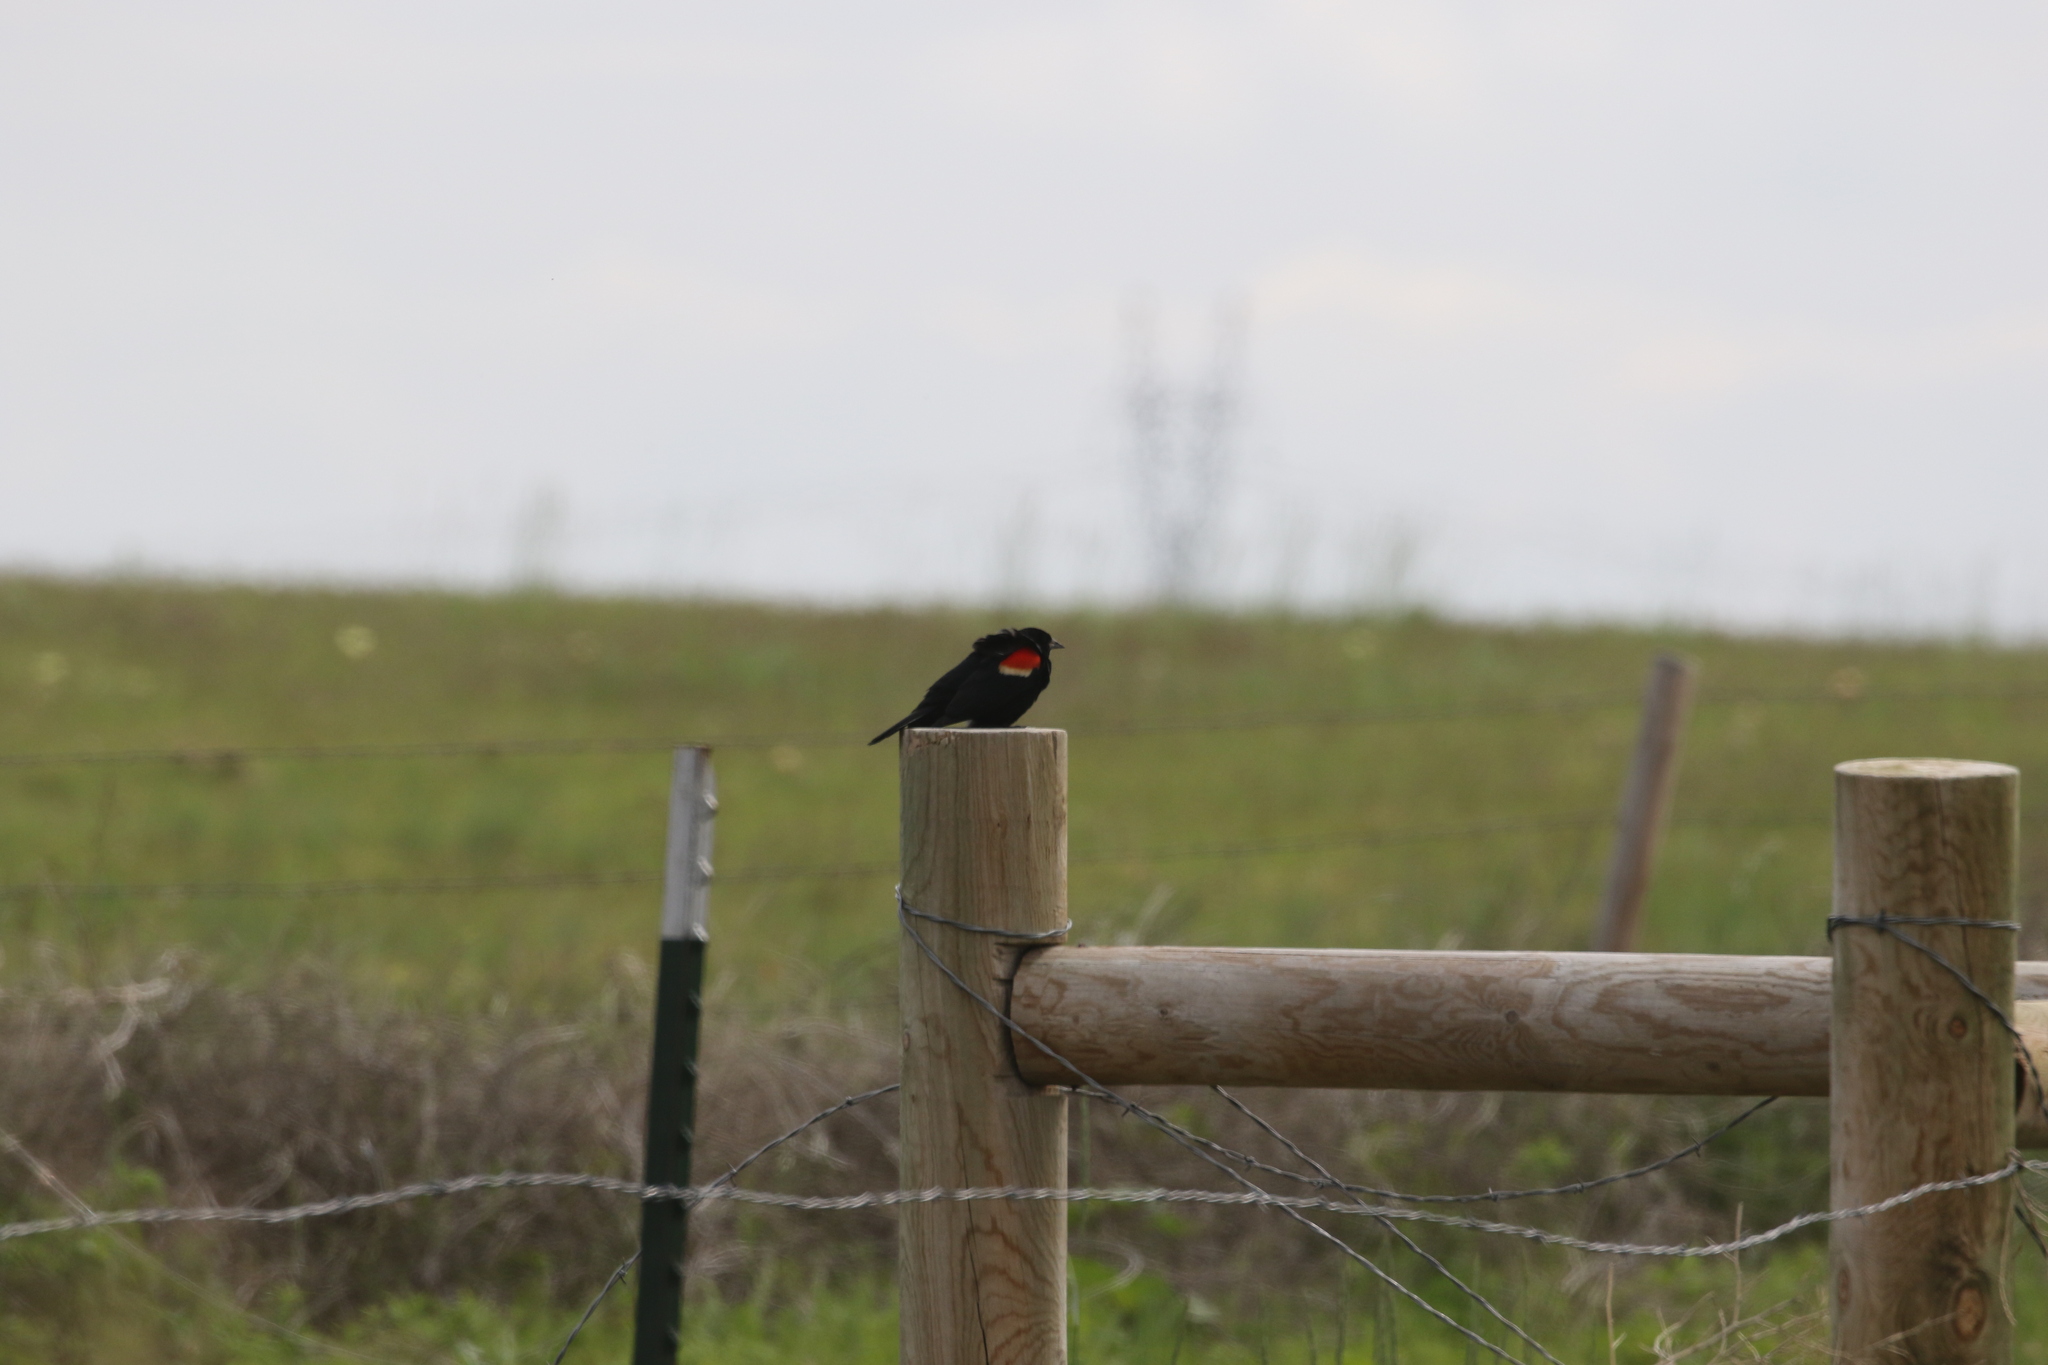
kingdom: Animalia
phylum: Chordata
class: Aves
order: Passeriformes
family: Icteridae
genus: Agelaius
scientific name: Agelaius phoeniceus
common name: Red-winged blackbird
